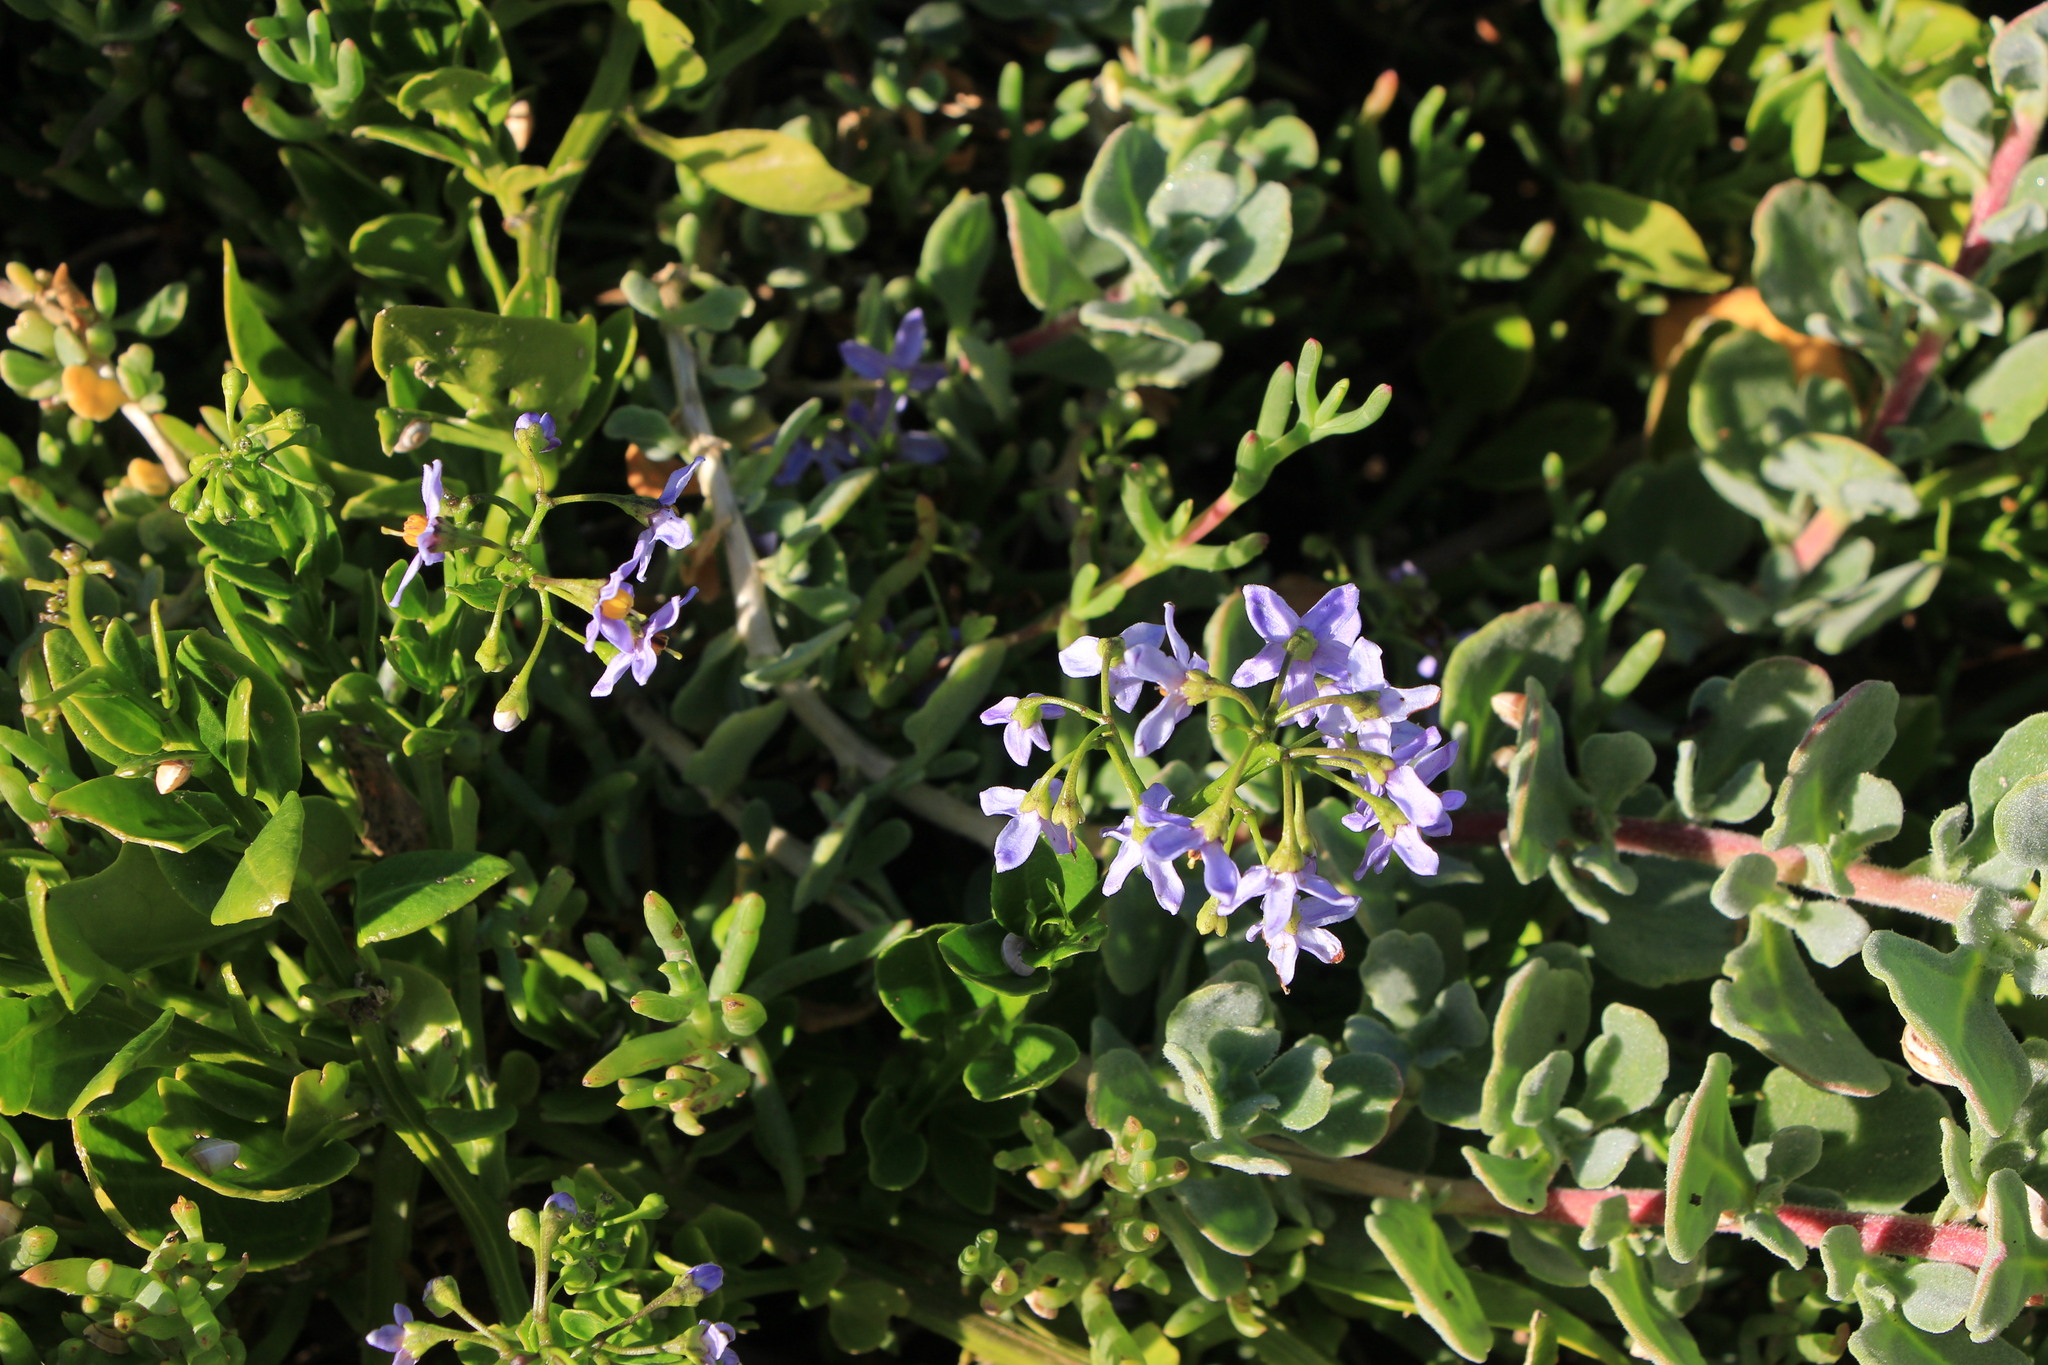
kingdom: Plantae
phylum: Tracheophyta
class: Magnoliopsida
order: Solanales
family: Solanaceae
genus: Solanum
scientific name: Solanum africanum
